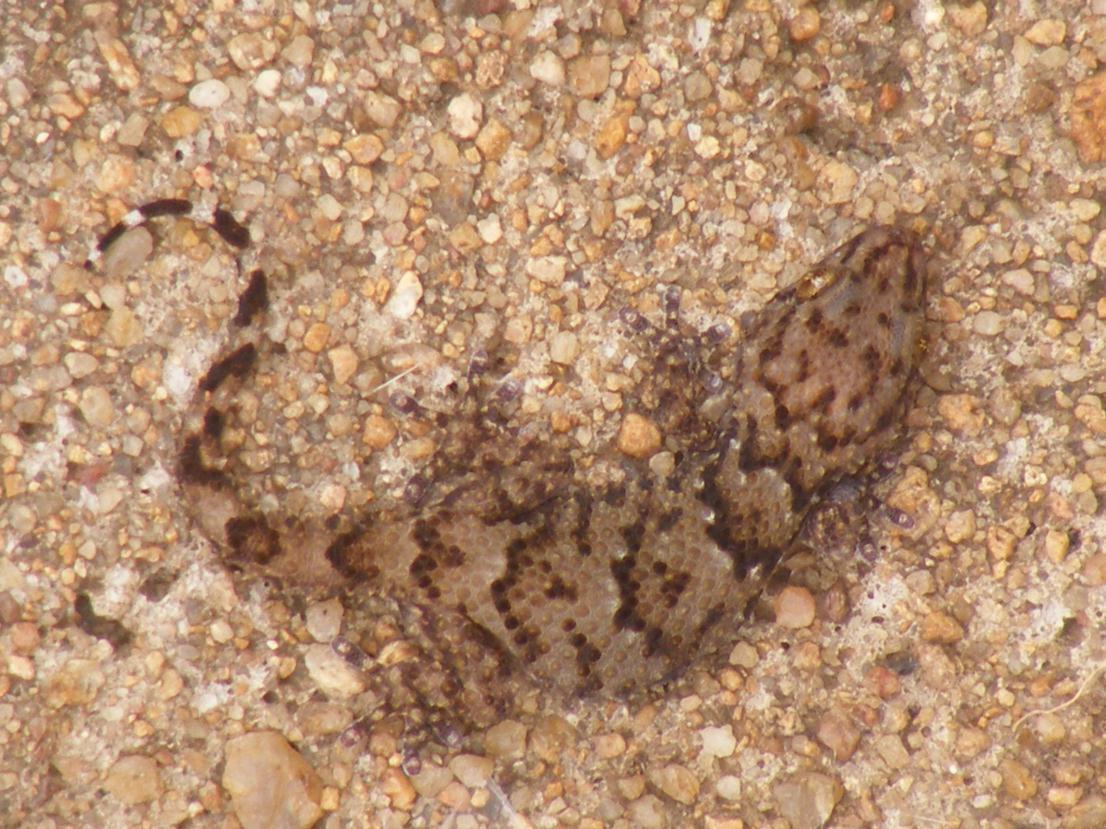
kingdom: Animalia
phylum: Chordata
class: Squamata
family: Gekkonidae
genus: Chondrodactylus
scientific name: Chondrodactylus turneri
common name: Turner’s gecko
